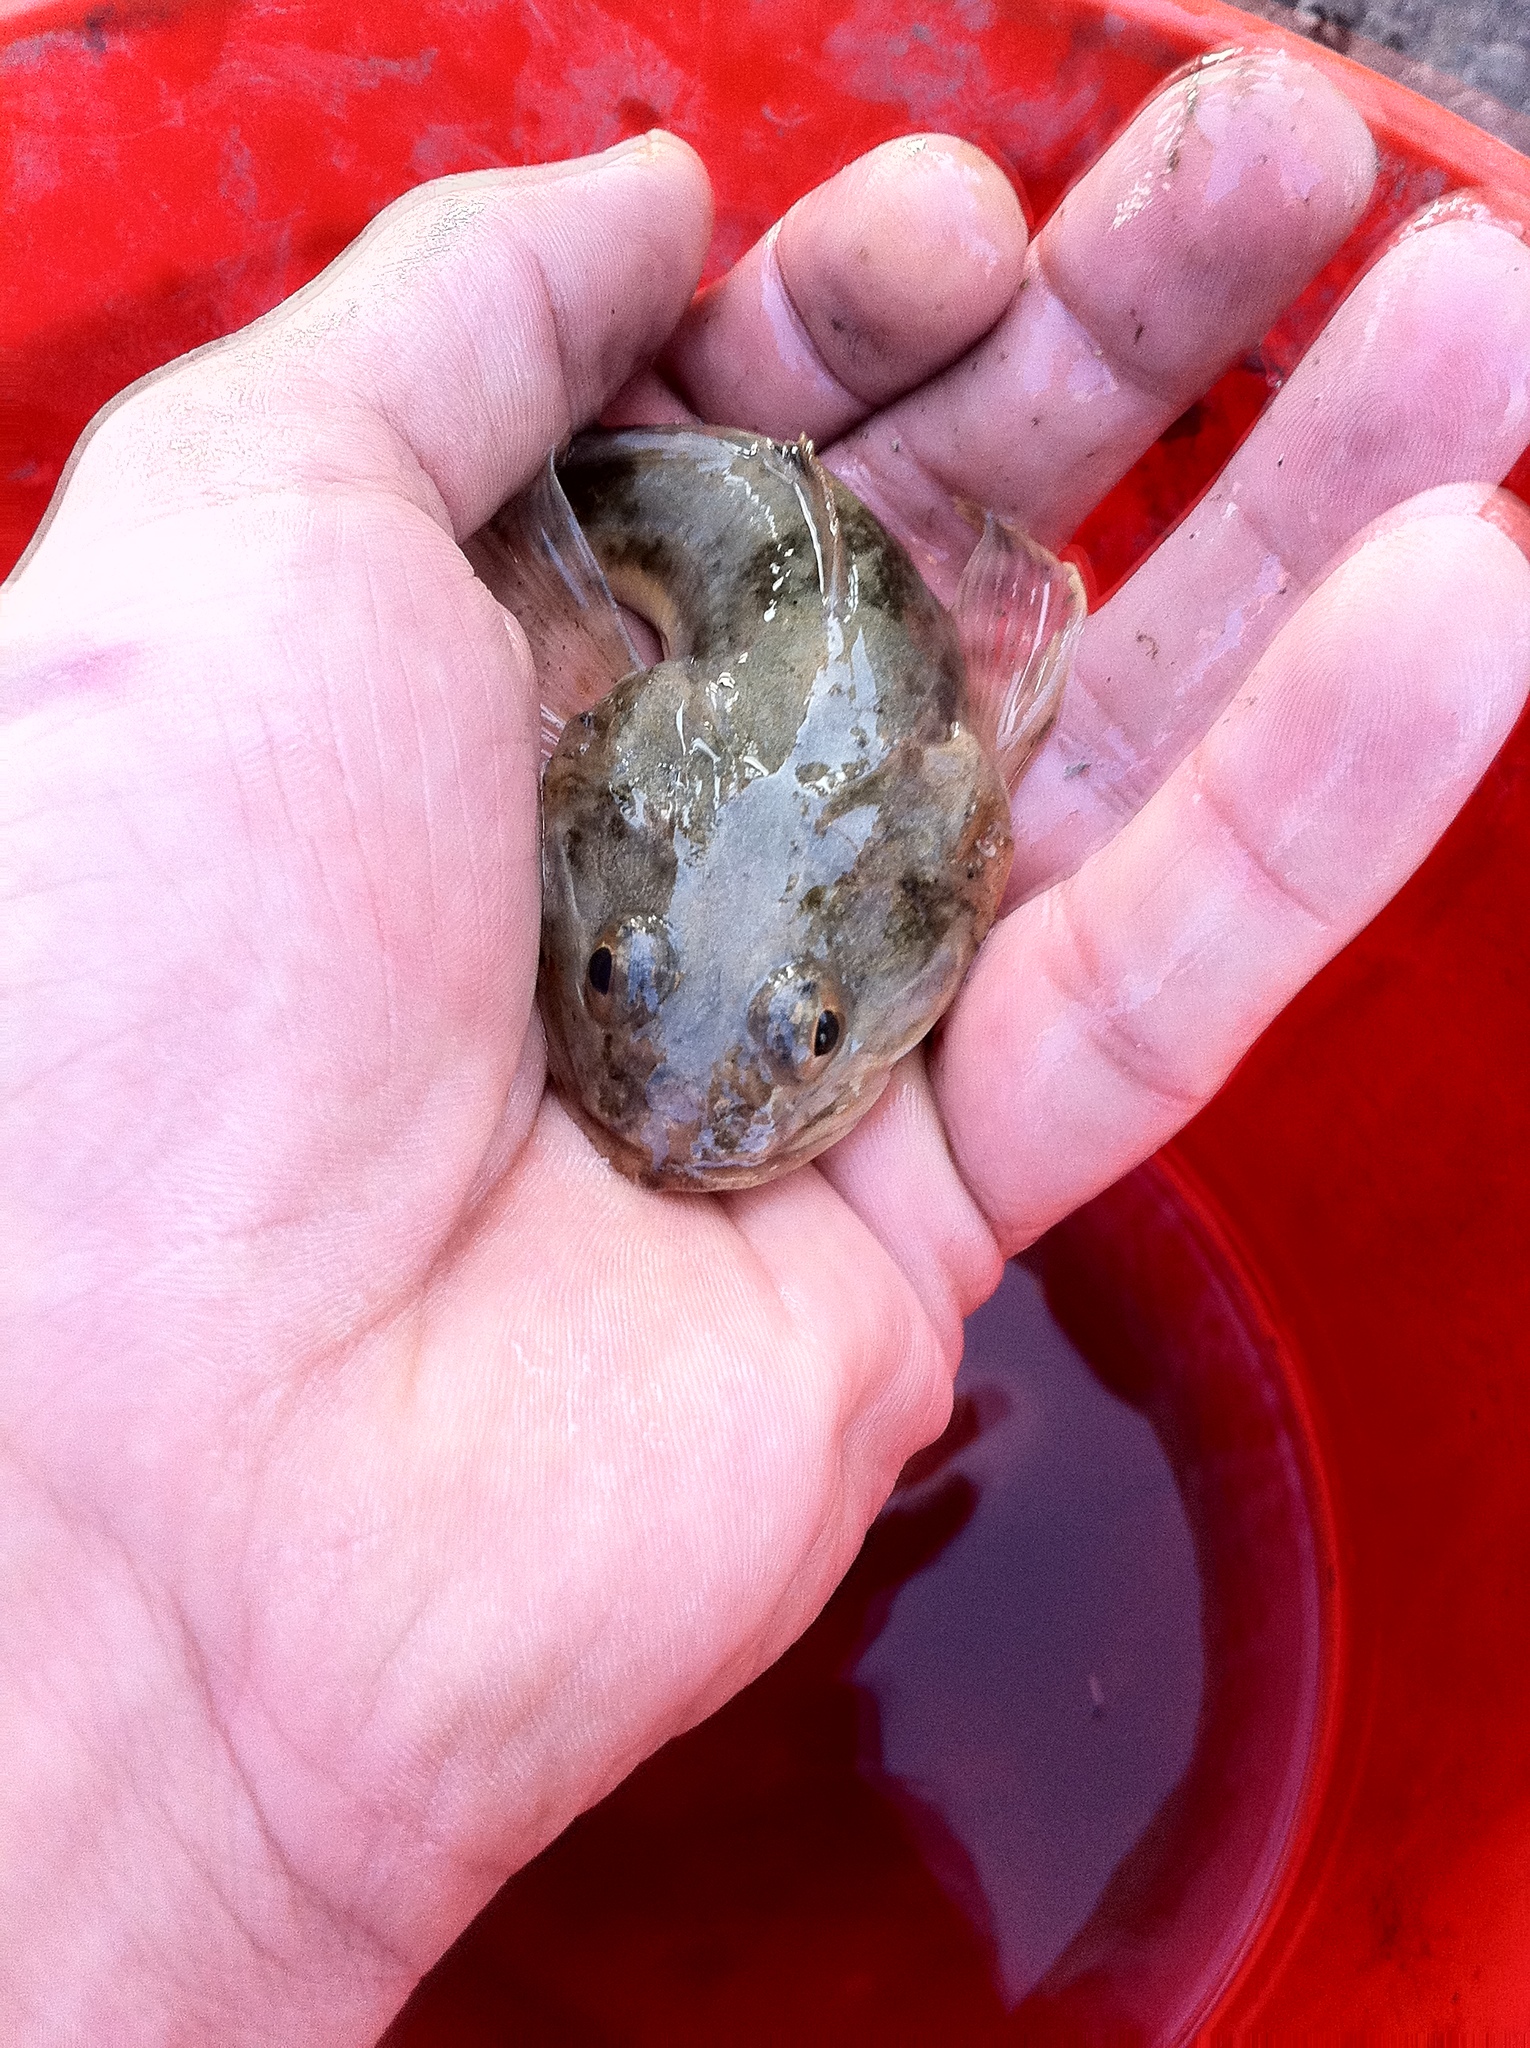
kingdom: Animalia
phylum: Chordata
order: Scorpaeniformes
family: Cottidae
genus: Leptocottus
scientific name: Leptocottus armatus
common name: Pacific staghorn sculpin
